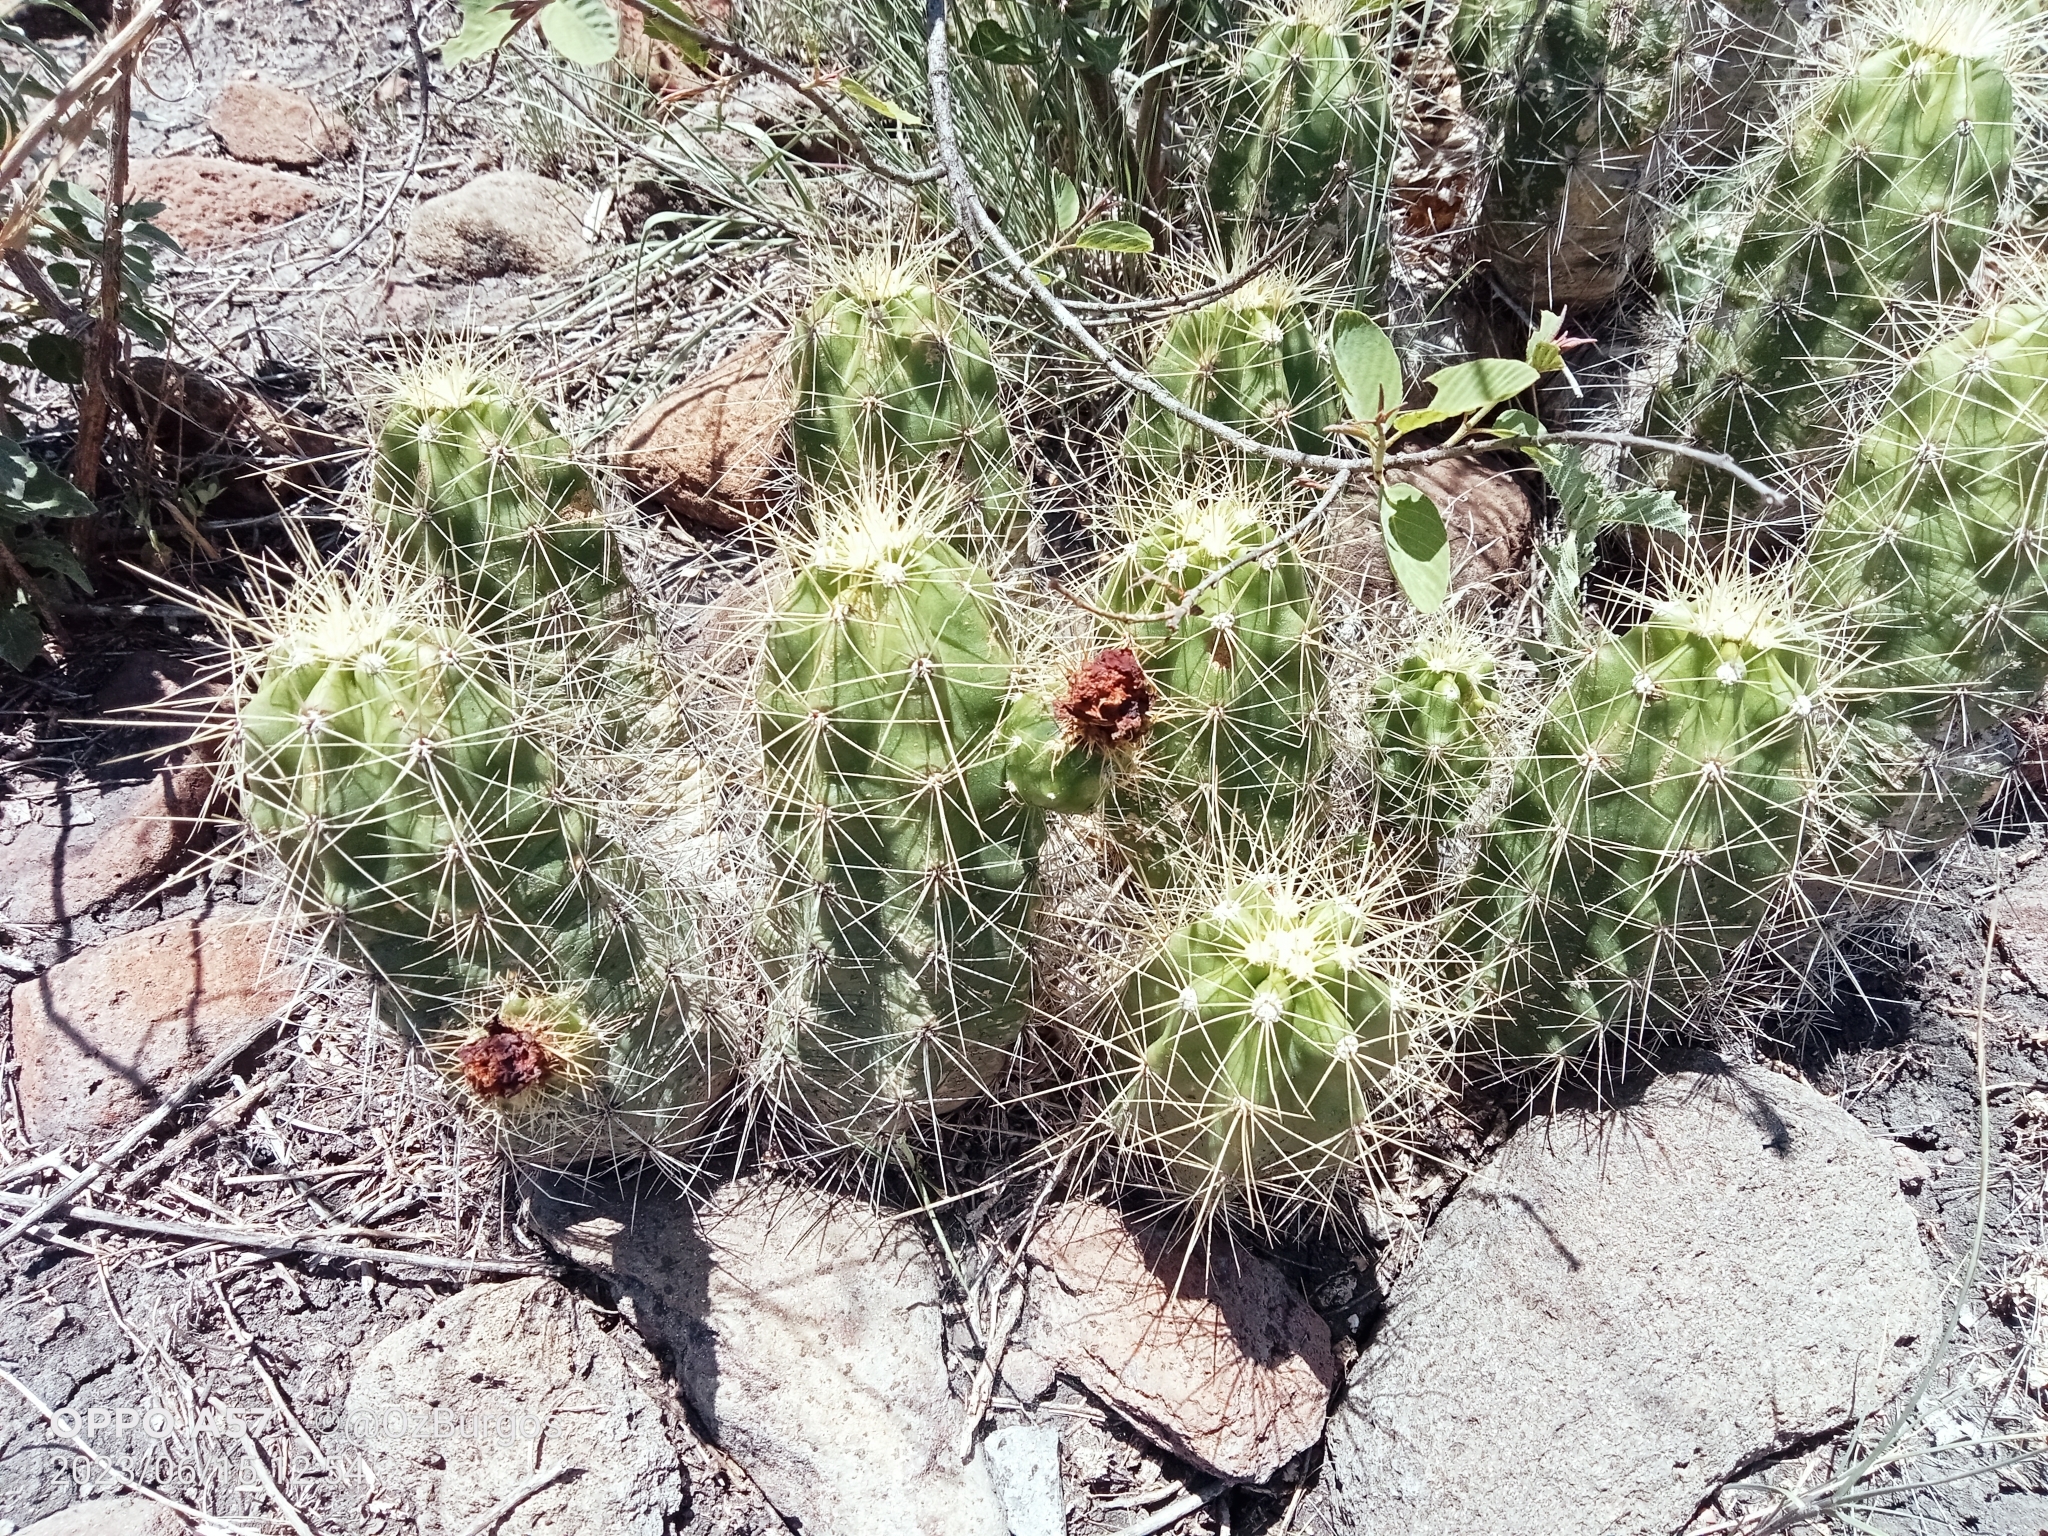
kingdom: Plantae
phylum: Tracheophyta
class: Magnoliopsida
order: Caryophyllales
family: Cactaceae
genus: Echinocereus
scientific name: Echinocereus cinerascens
